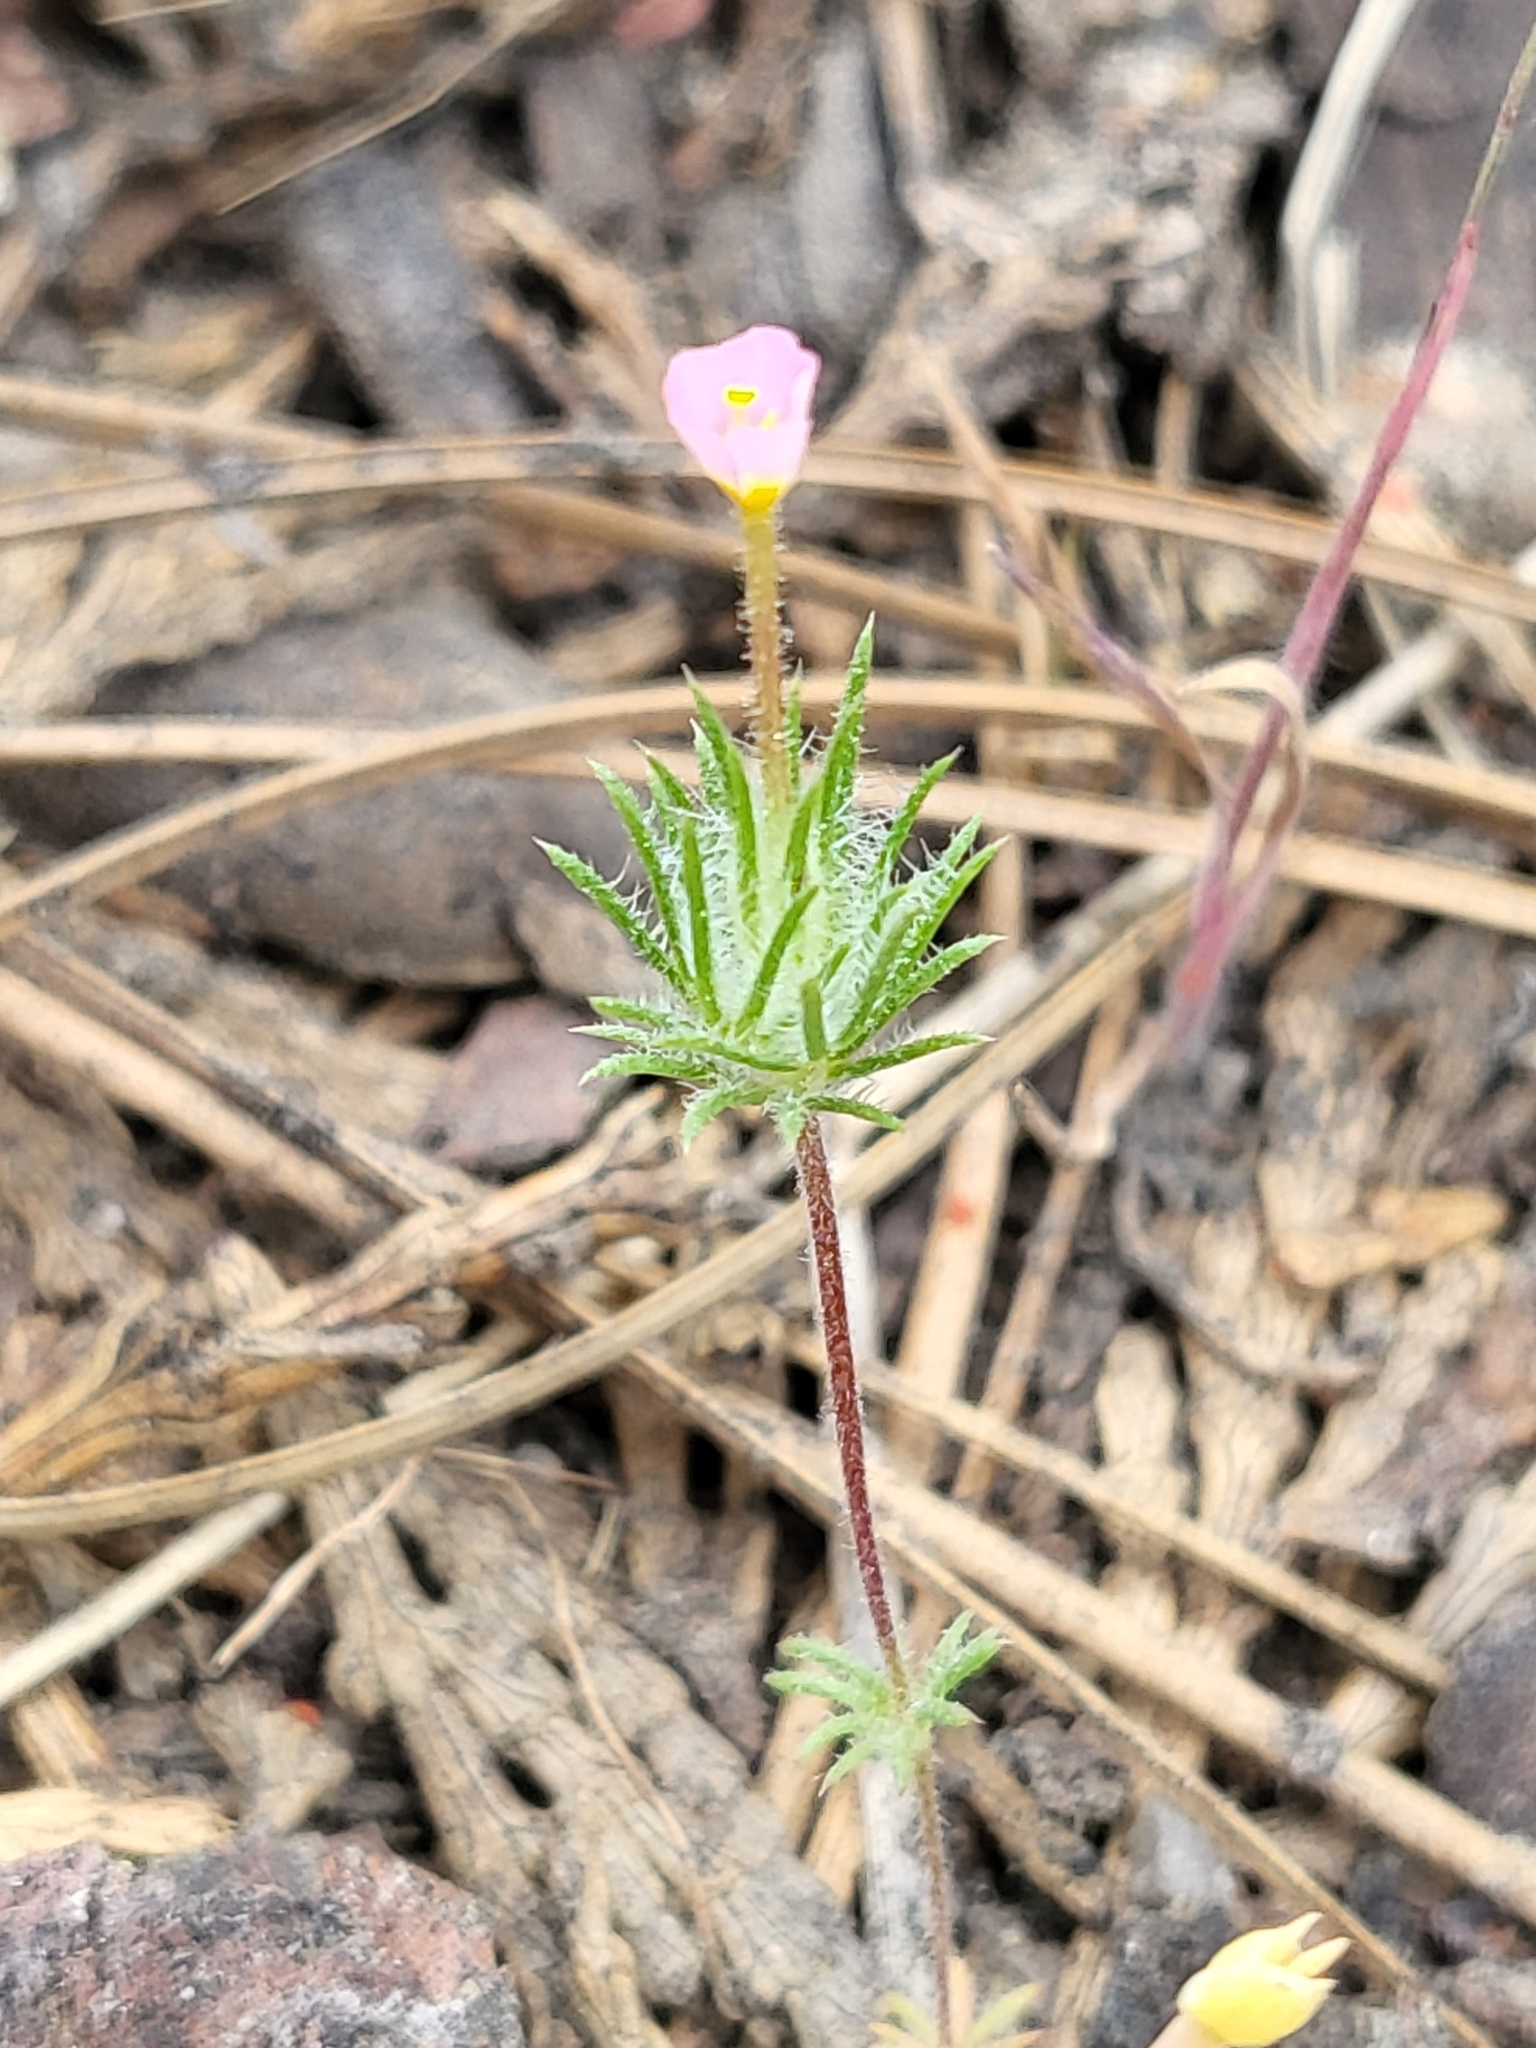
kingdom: Plantae
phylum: Tracheophyta
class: Magnoliopsida
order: Ericales
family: Polemoniaceae
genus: Leptosiphon
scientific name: Leptosiphon ciliatus
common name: Whiskerbrush
